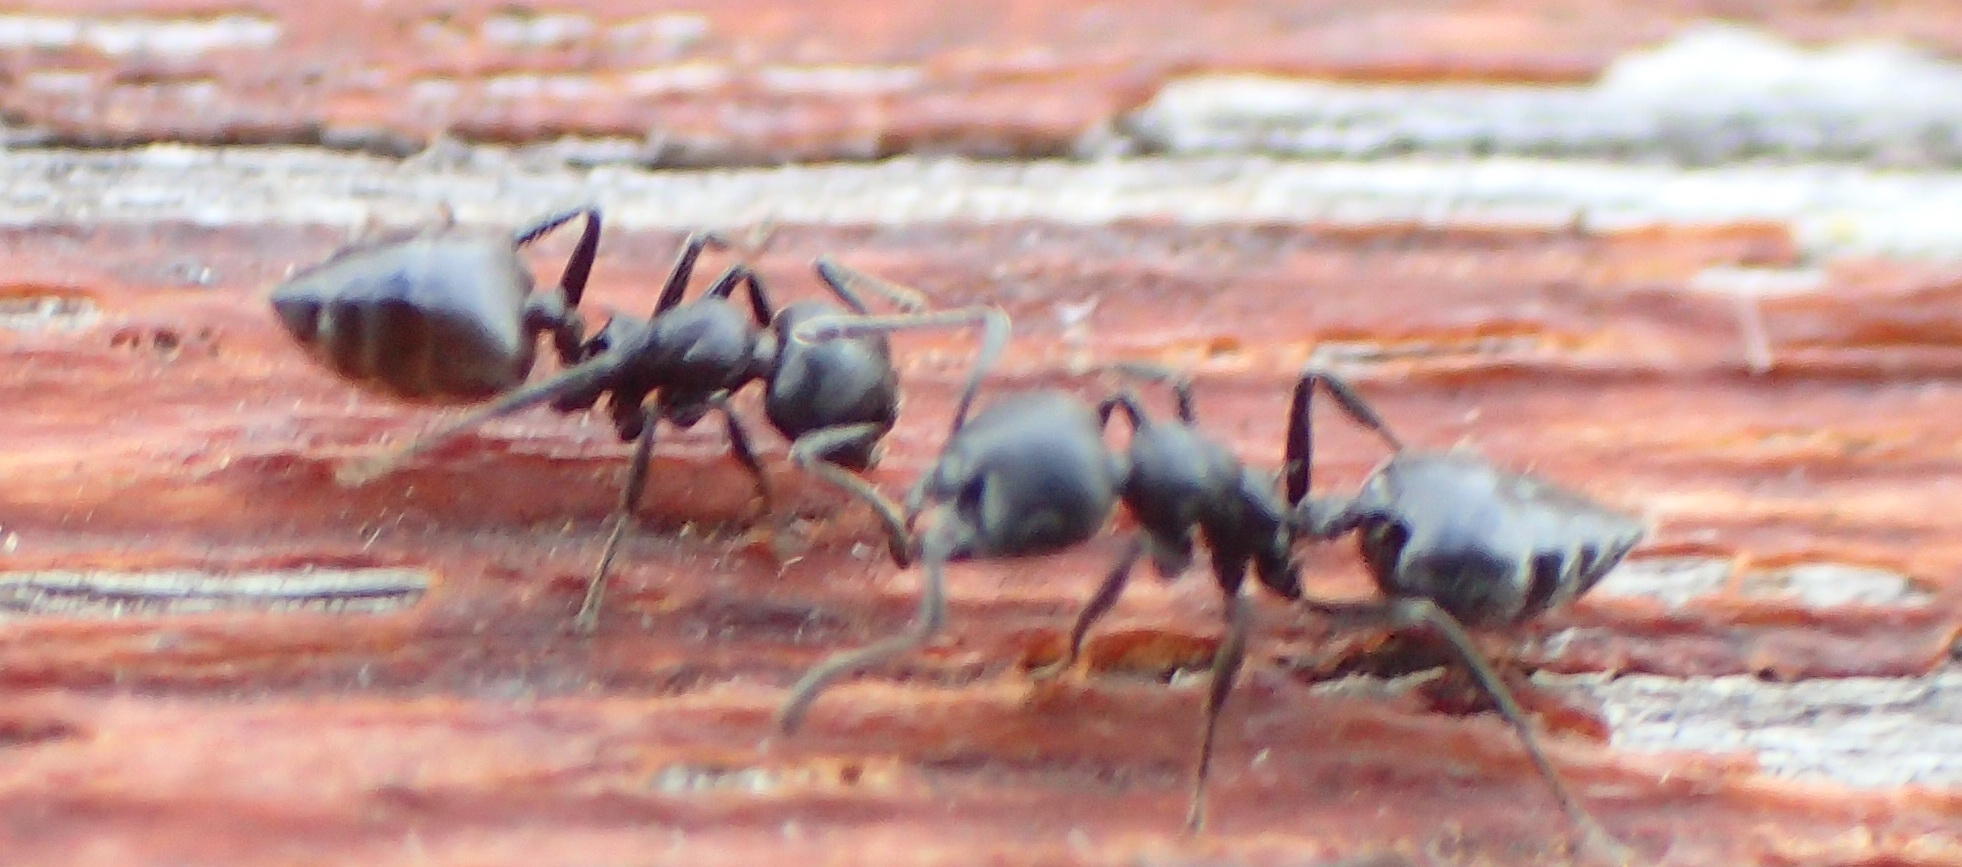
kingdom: Animalia
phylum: Arthropoda
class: Insecta
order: Hymenoptera
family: Formicidae
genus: Crematogaster
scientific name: Crematogaster peringueyi
